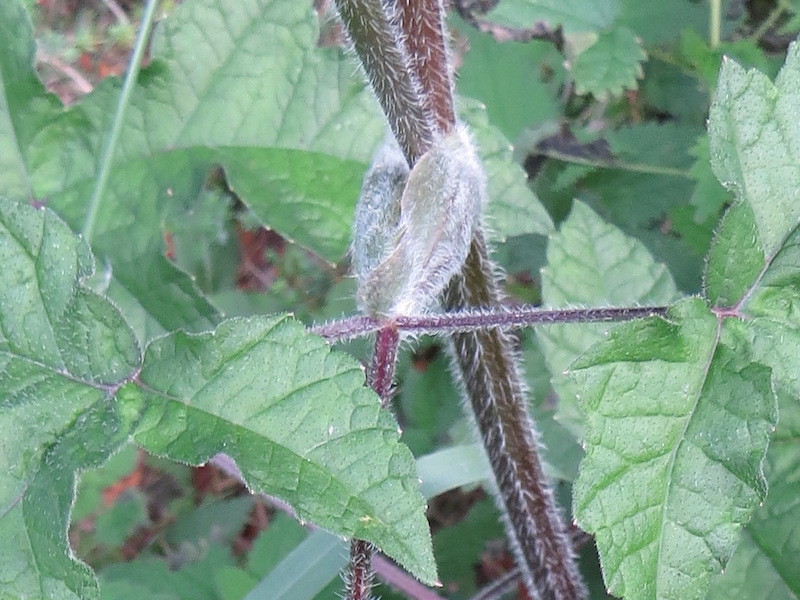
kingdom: Plantae
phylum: Tracheophyta
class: Magnoliopsida
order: Apiales
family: Apiaceae
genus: Heracleum
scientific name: Heracleum sphondylium
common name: Hogweed
